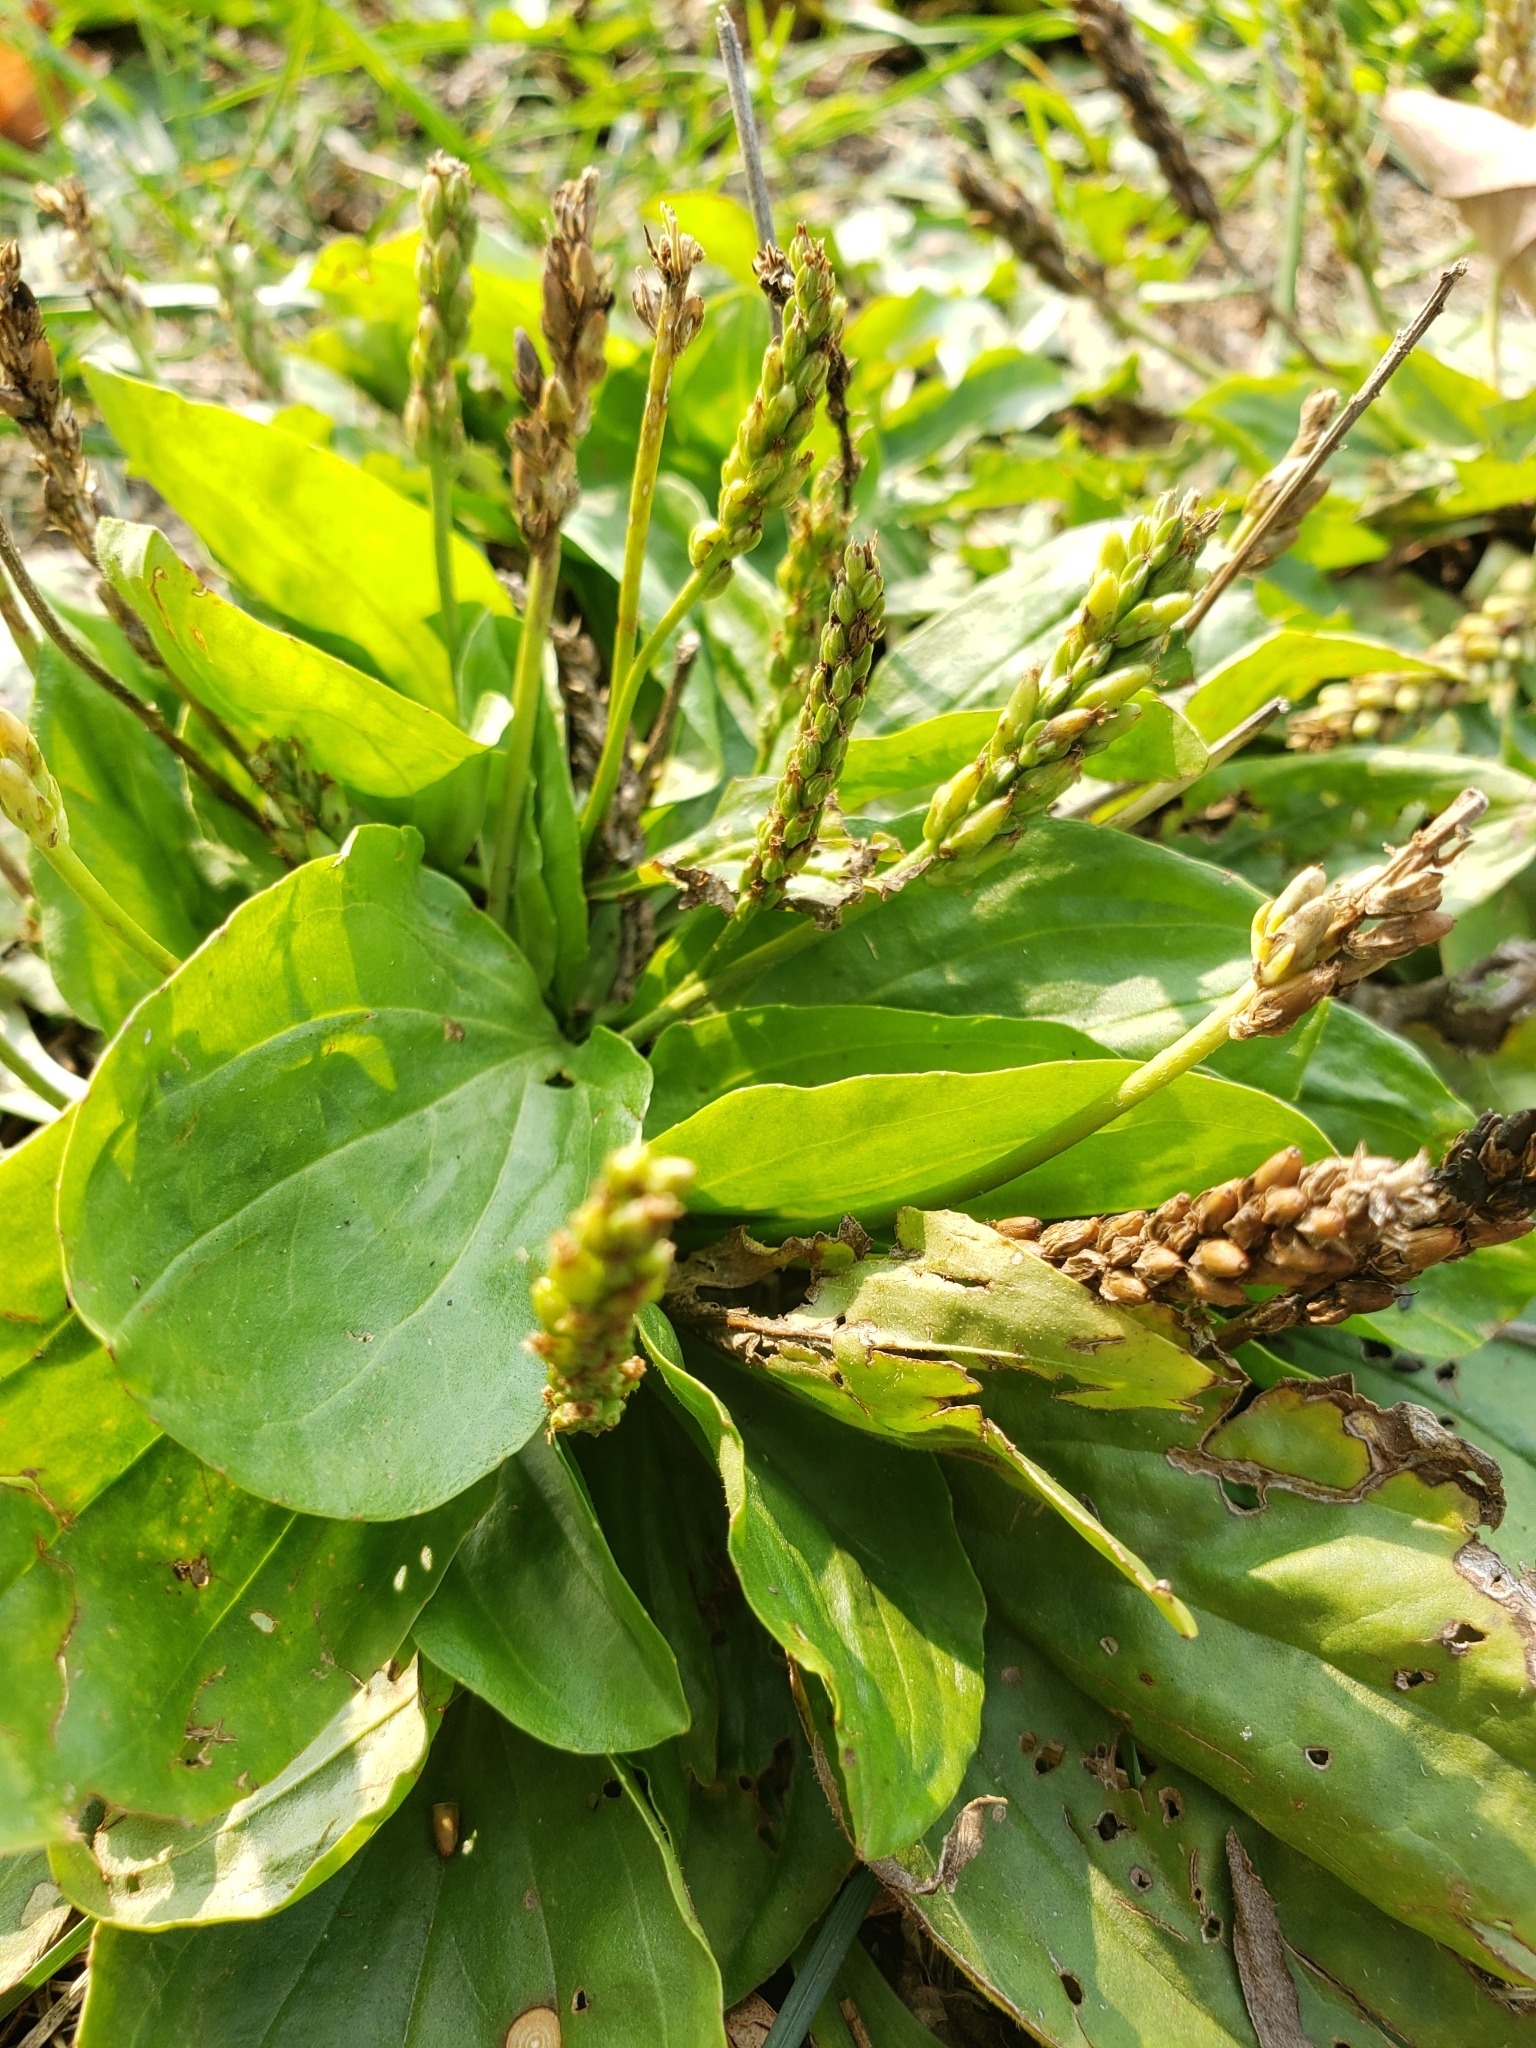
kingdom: Plantae
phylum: Tracheophyta
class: Magnoliopsida
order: Lamiales
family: Plantaginaceae
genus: Plantago
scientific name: Plantago major
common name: Common plantain
